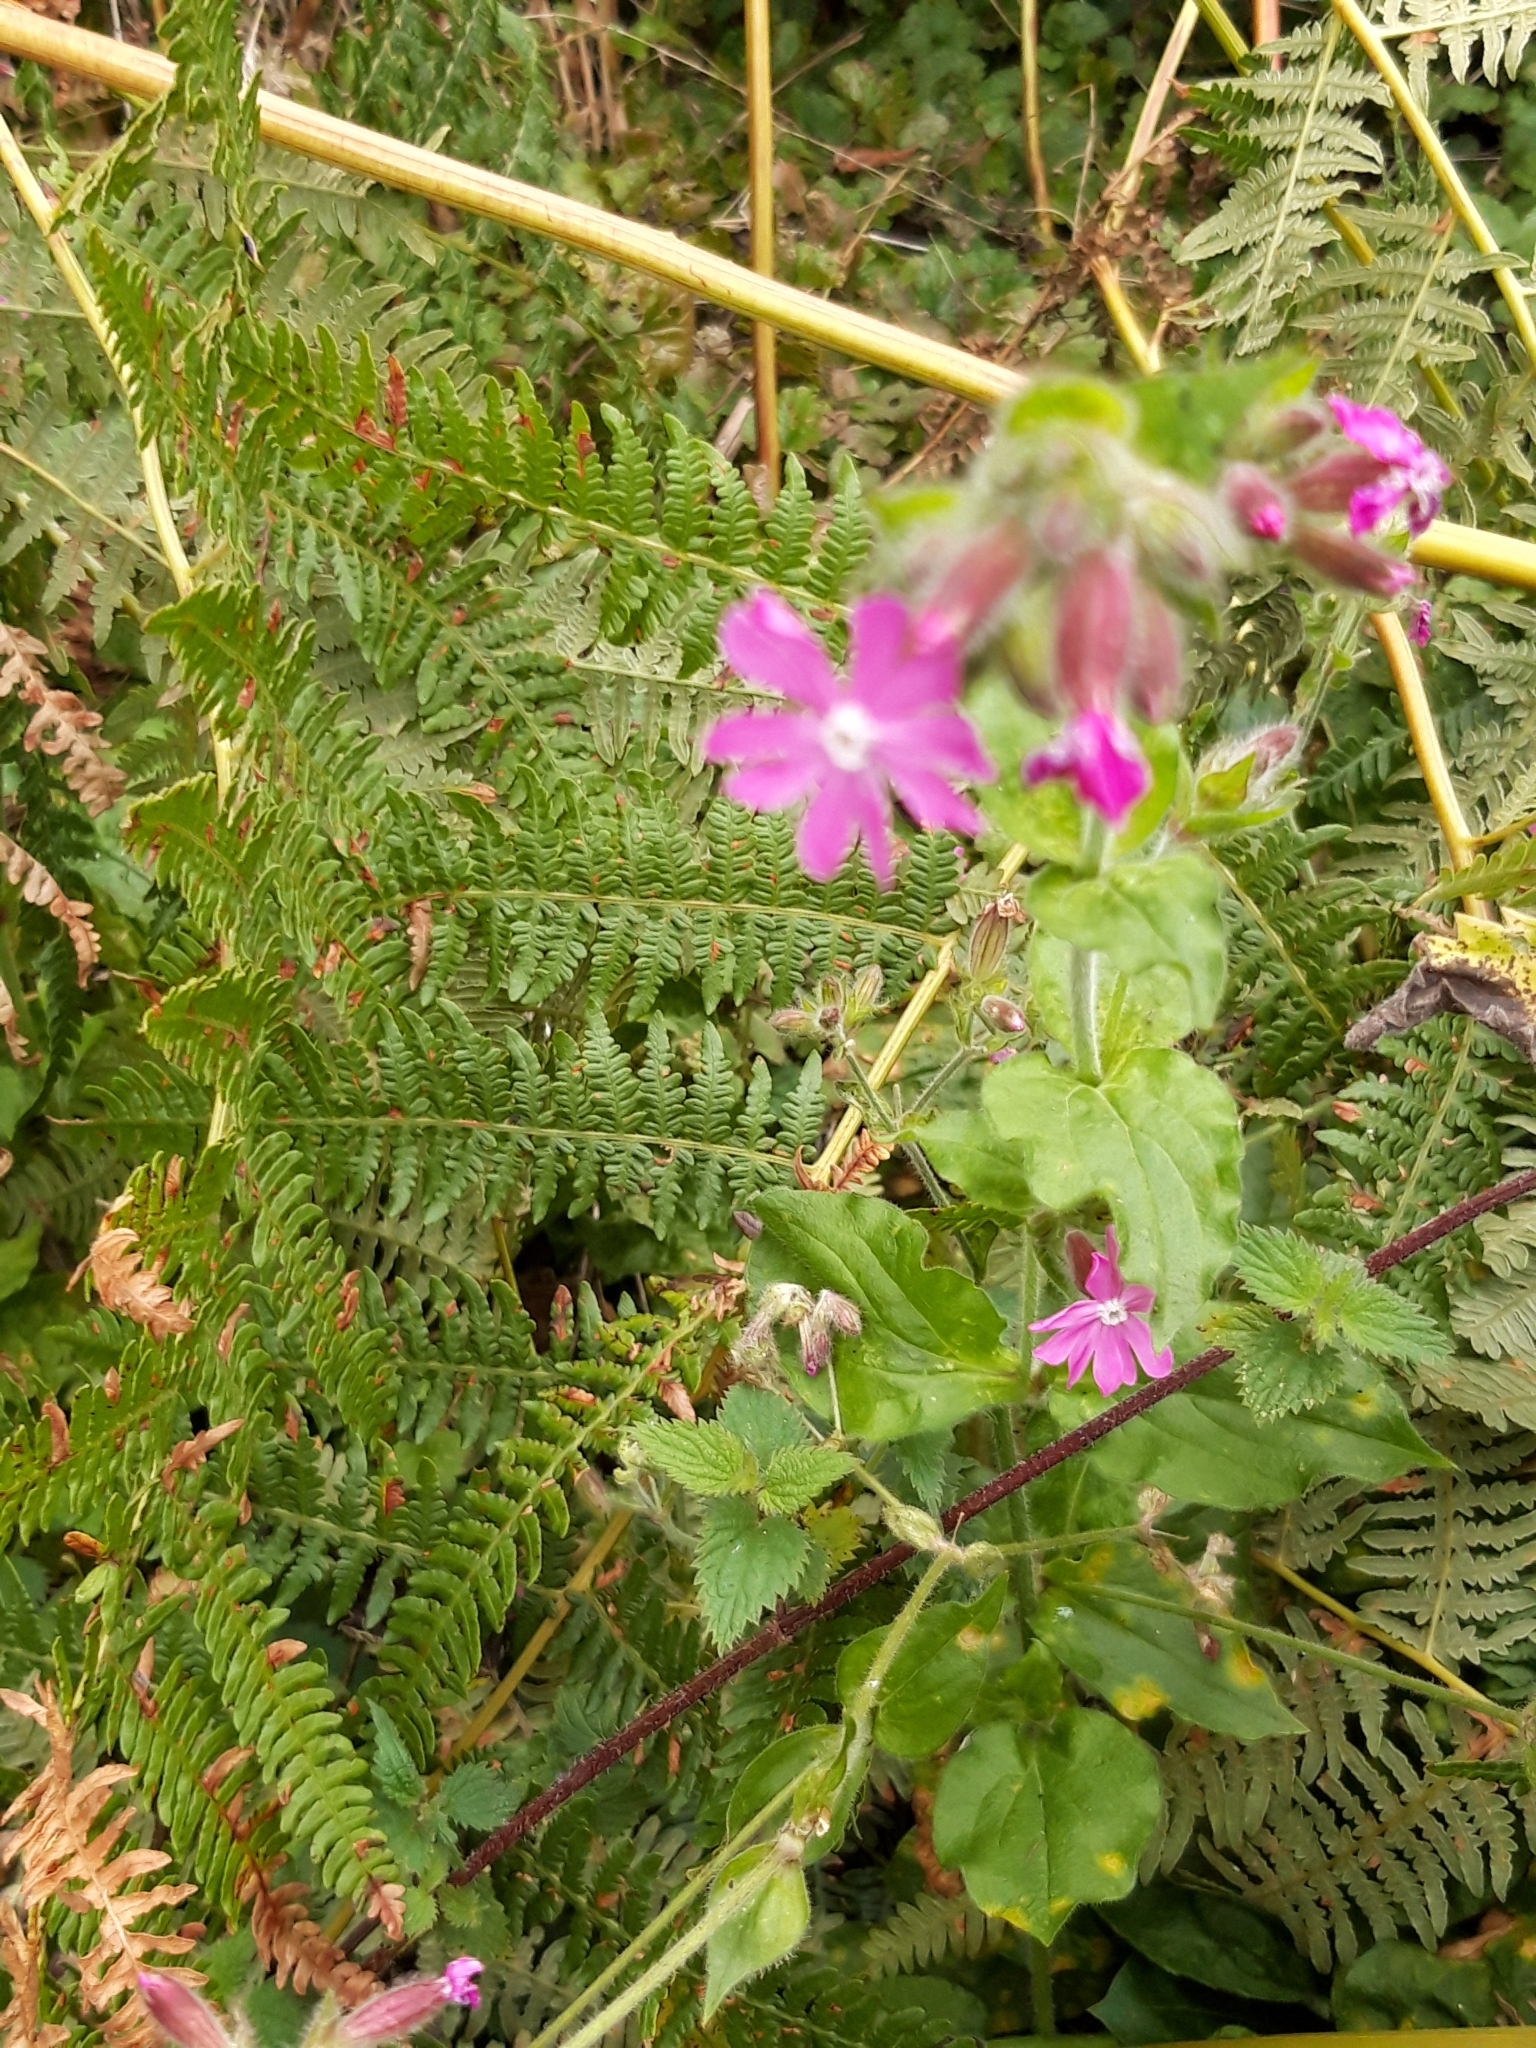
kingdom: Plantae
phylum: Tracheophyta
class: Magnoliopsida
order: Caryophyllales
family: Caryophyllaceae
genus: Silene
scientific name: Silene dioica
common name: Red campion
